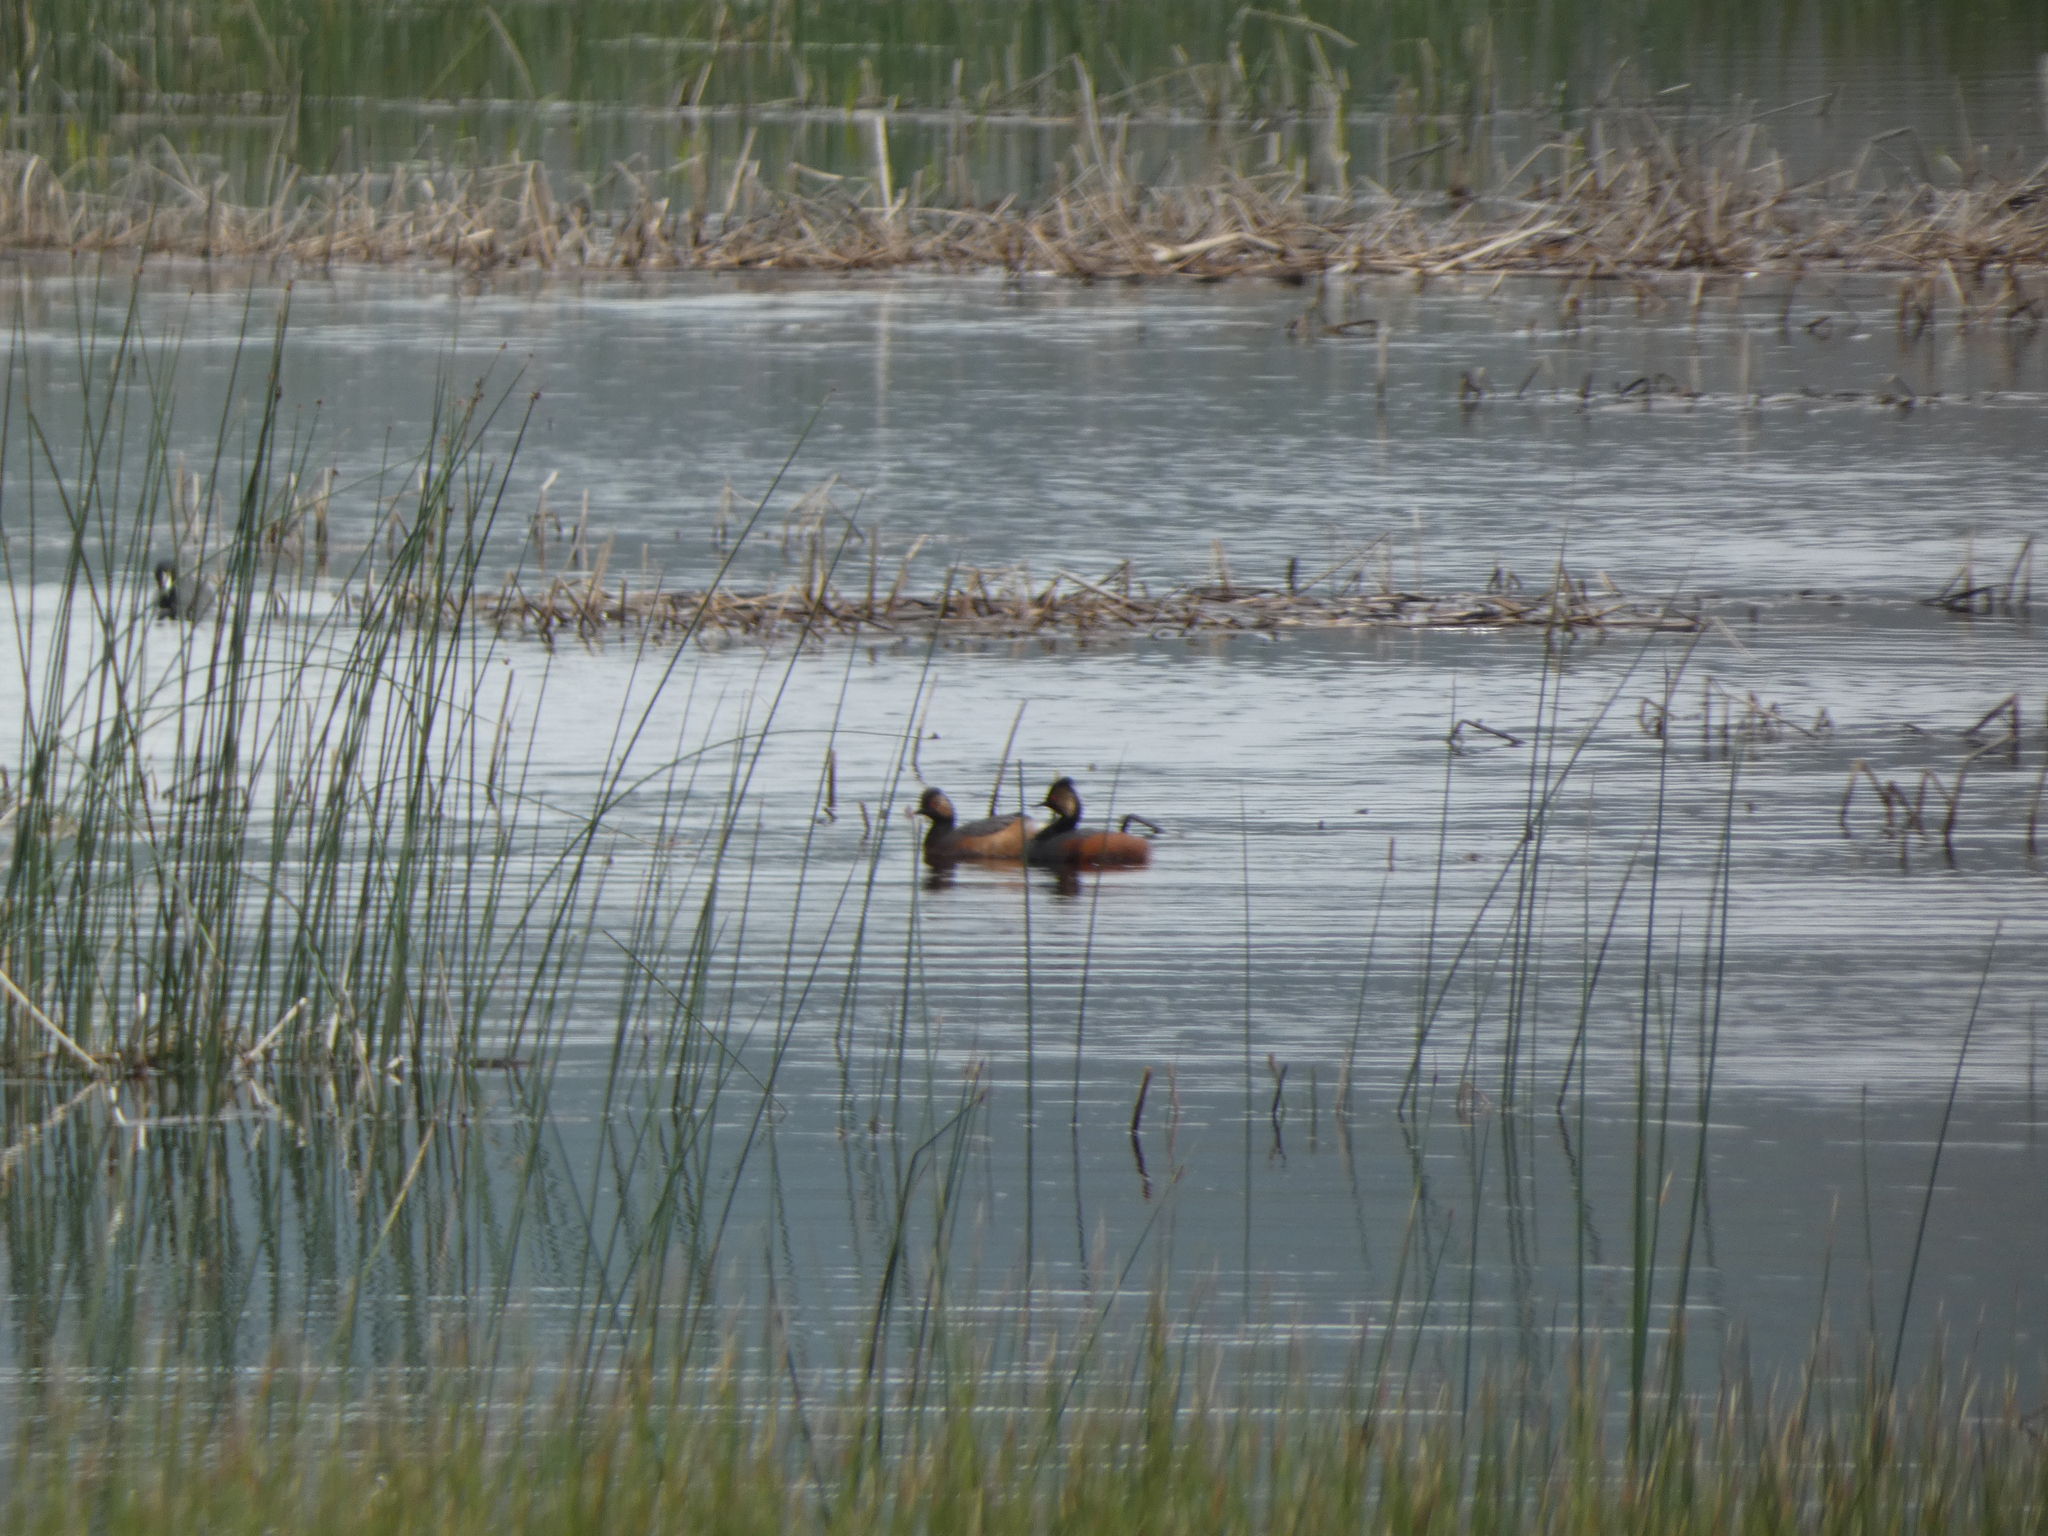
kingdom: Animalia
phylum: Chordata
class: Aves
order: Podicipediformes
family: Podicipedidae
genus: Podiceps
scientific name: Podiceps nigricollis
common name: Black-necked grebe
